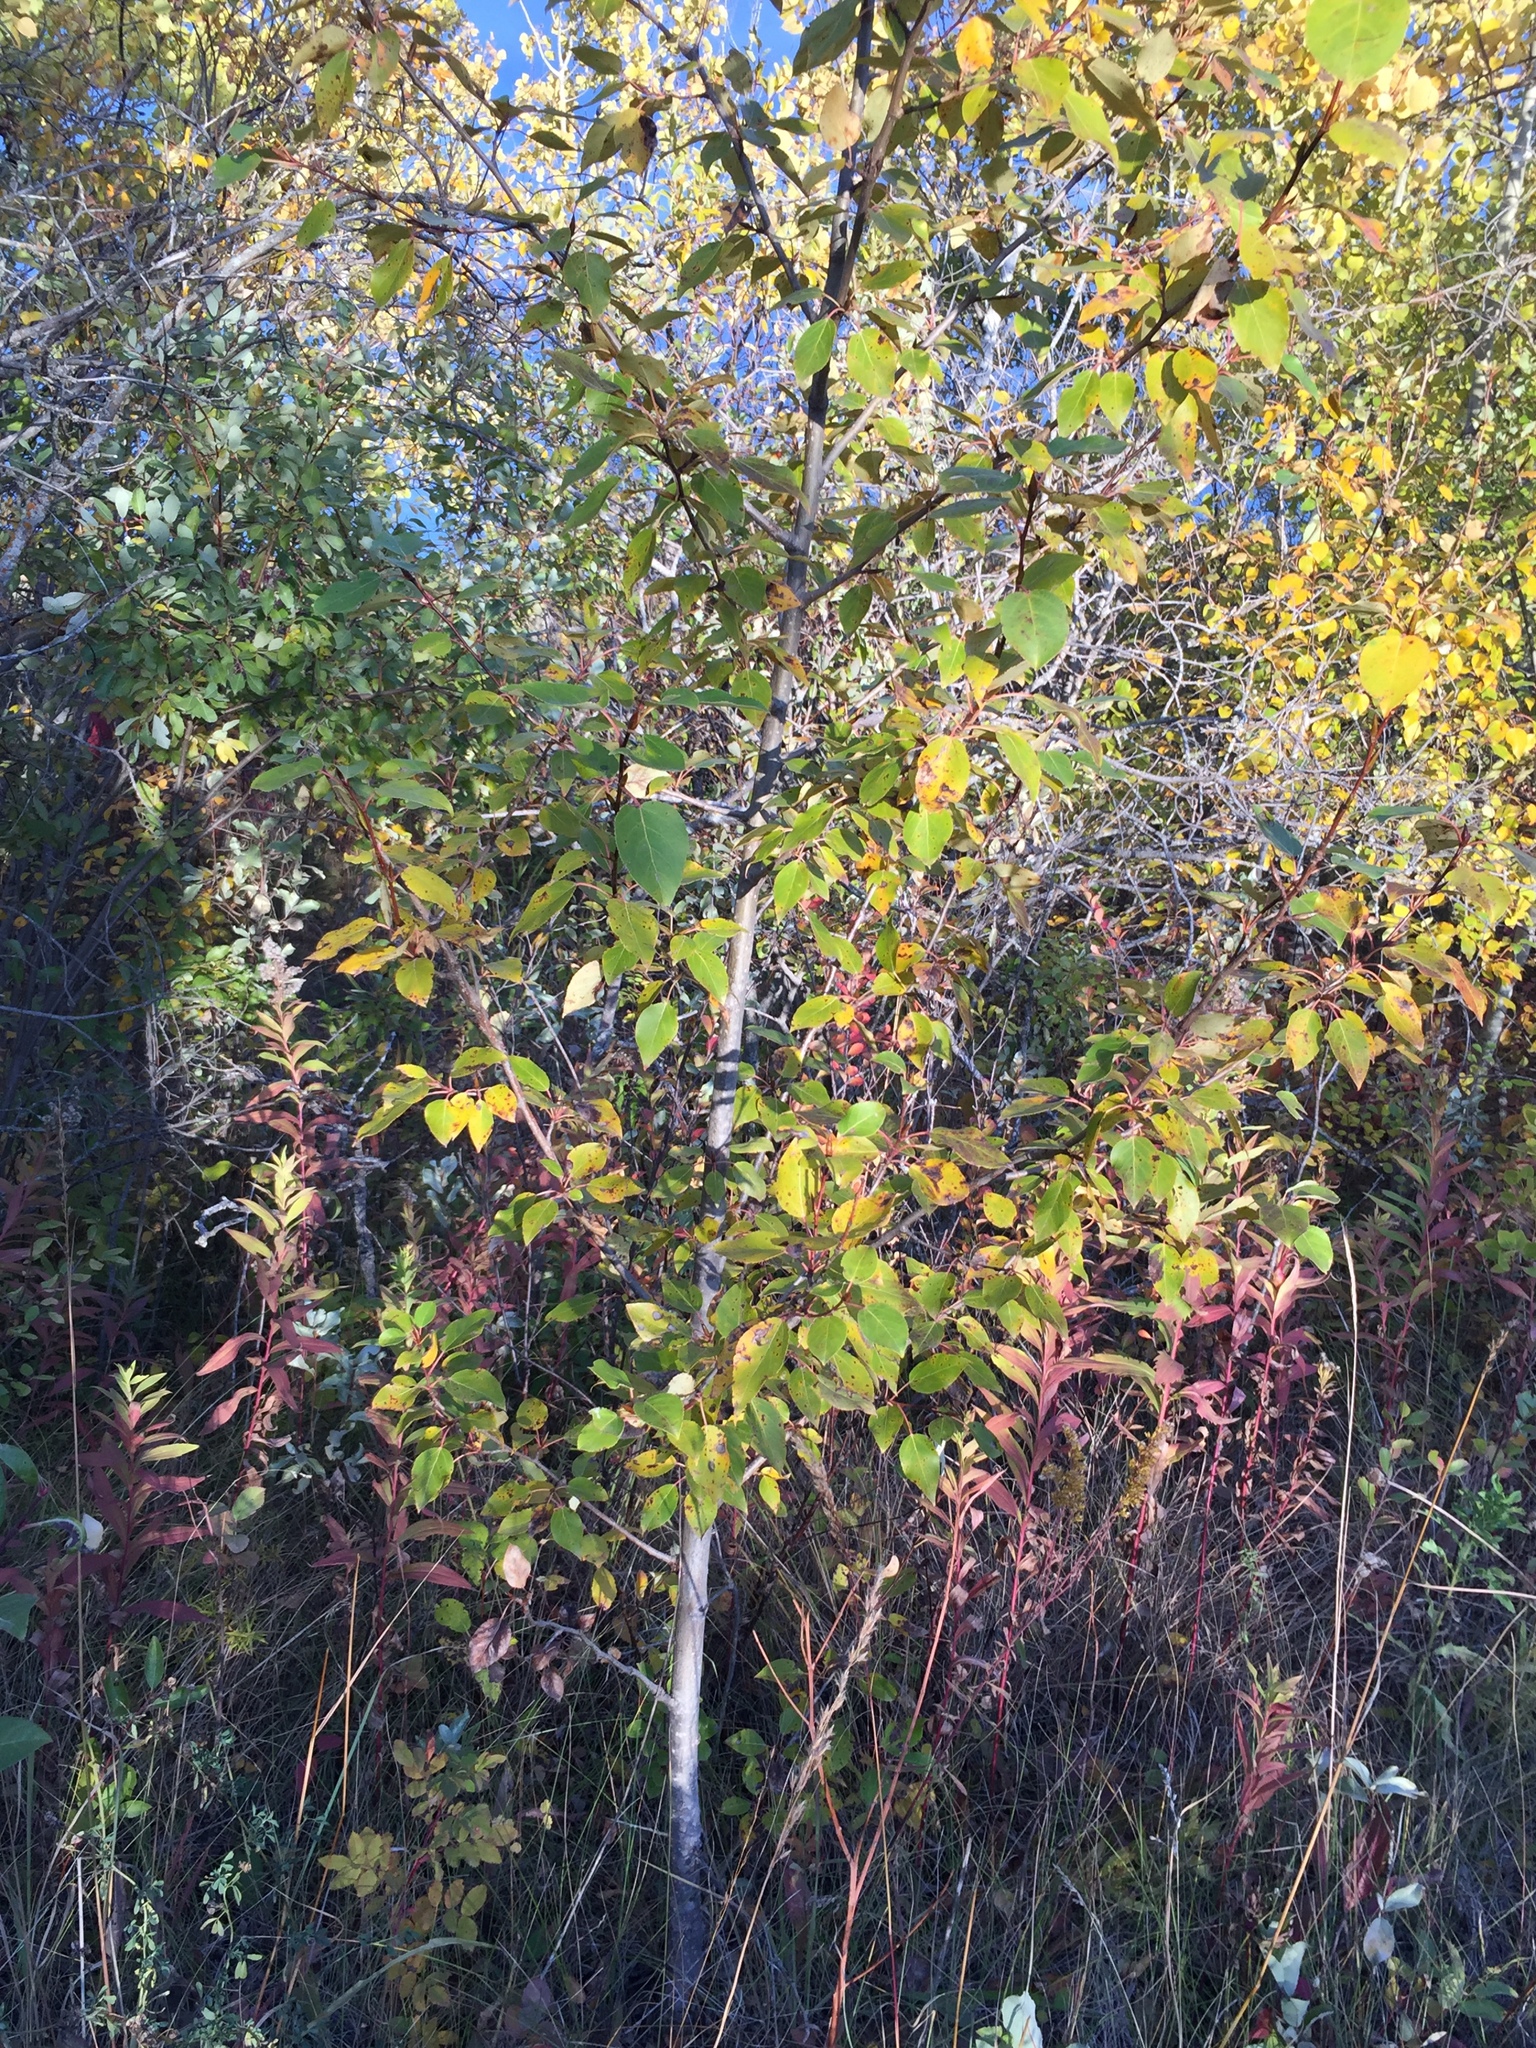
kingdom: Plantae
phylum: Tracheophyta
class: Magnoliopsida
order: Malpighiales
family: Salicaceae
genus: Populus
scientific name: Populus balsamifera
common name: Balsam poplar
